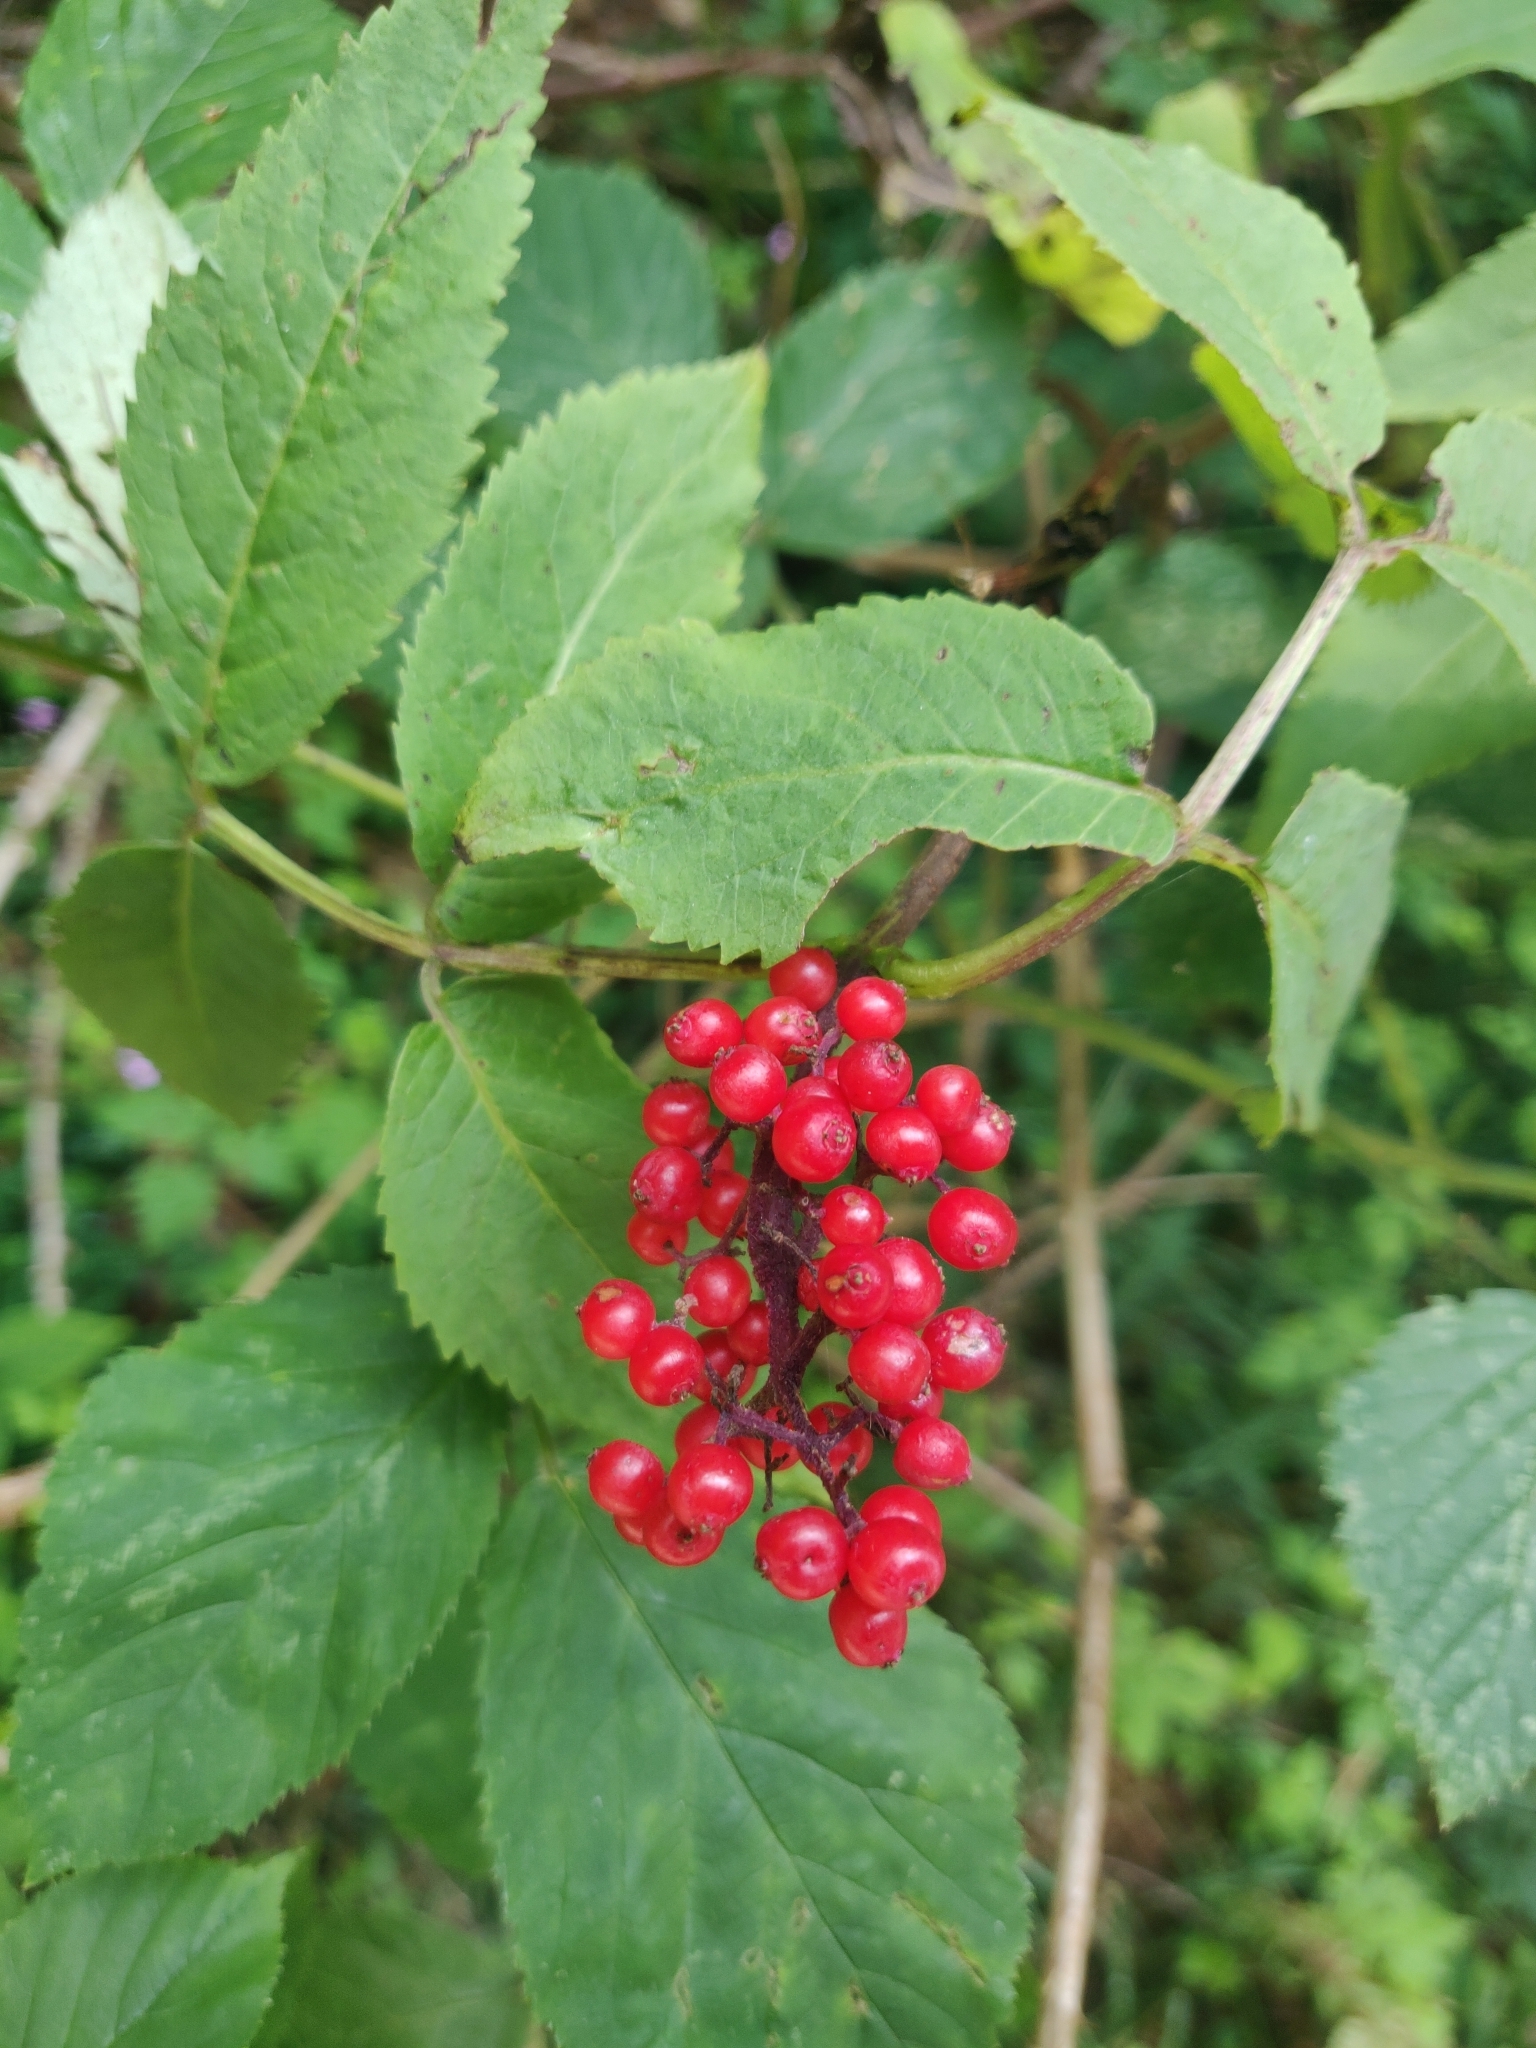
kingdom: Plantae
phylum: Tracheophyta
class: Magnoliopsida
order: Dipsacales
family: Viburnaceae
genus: Sambucus
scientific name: Sambucus racemosa
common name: Red-berried elder
